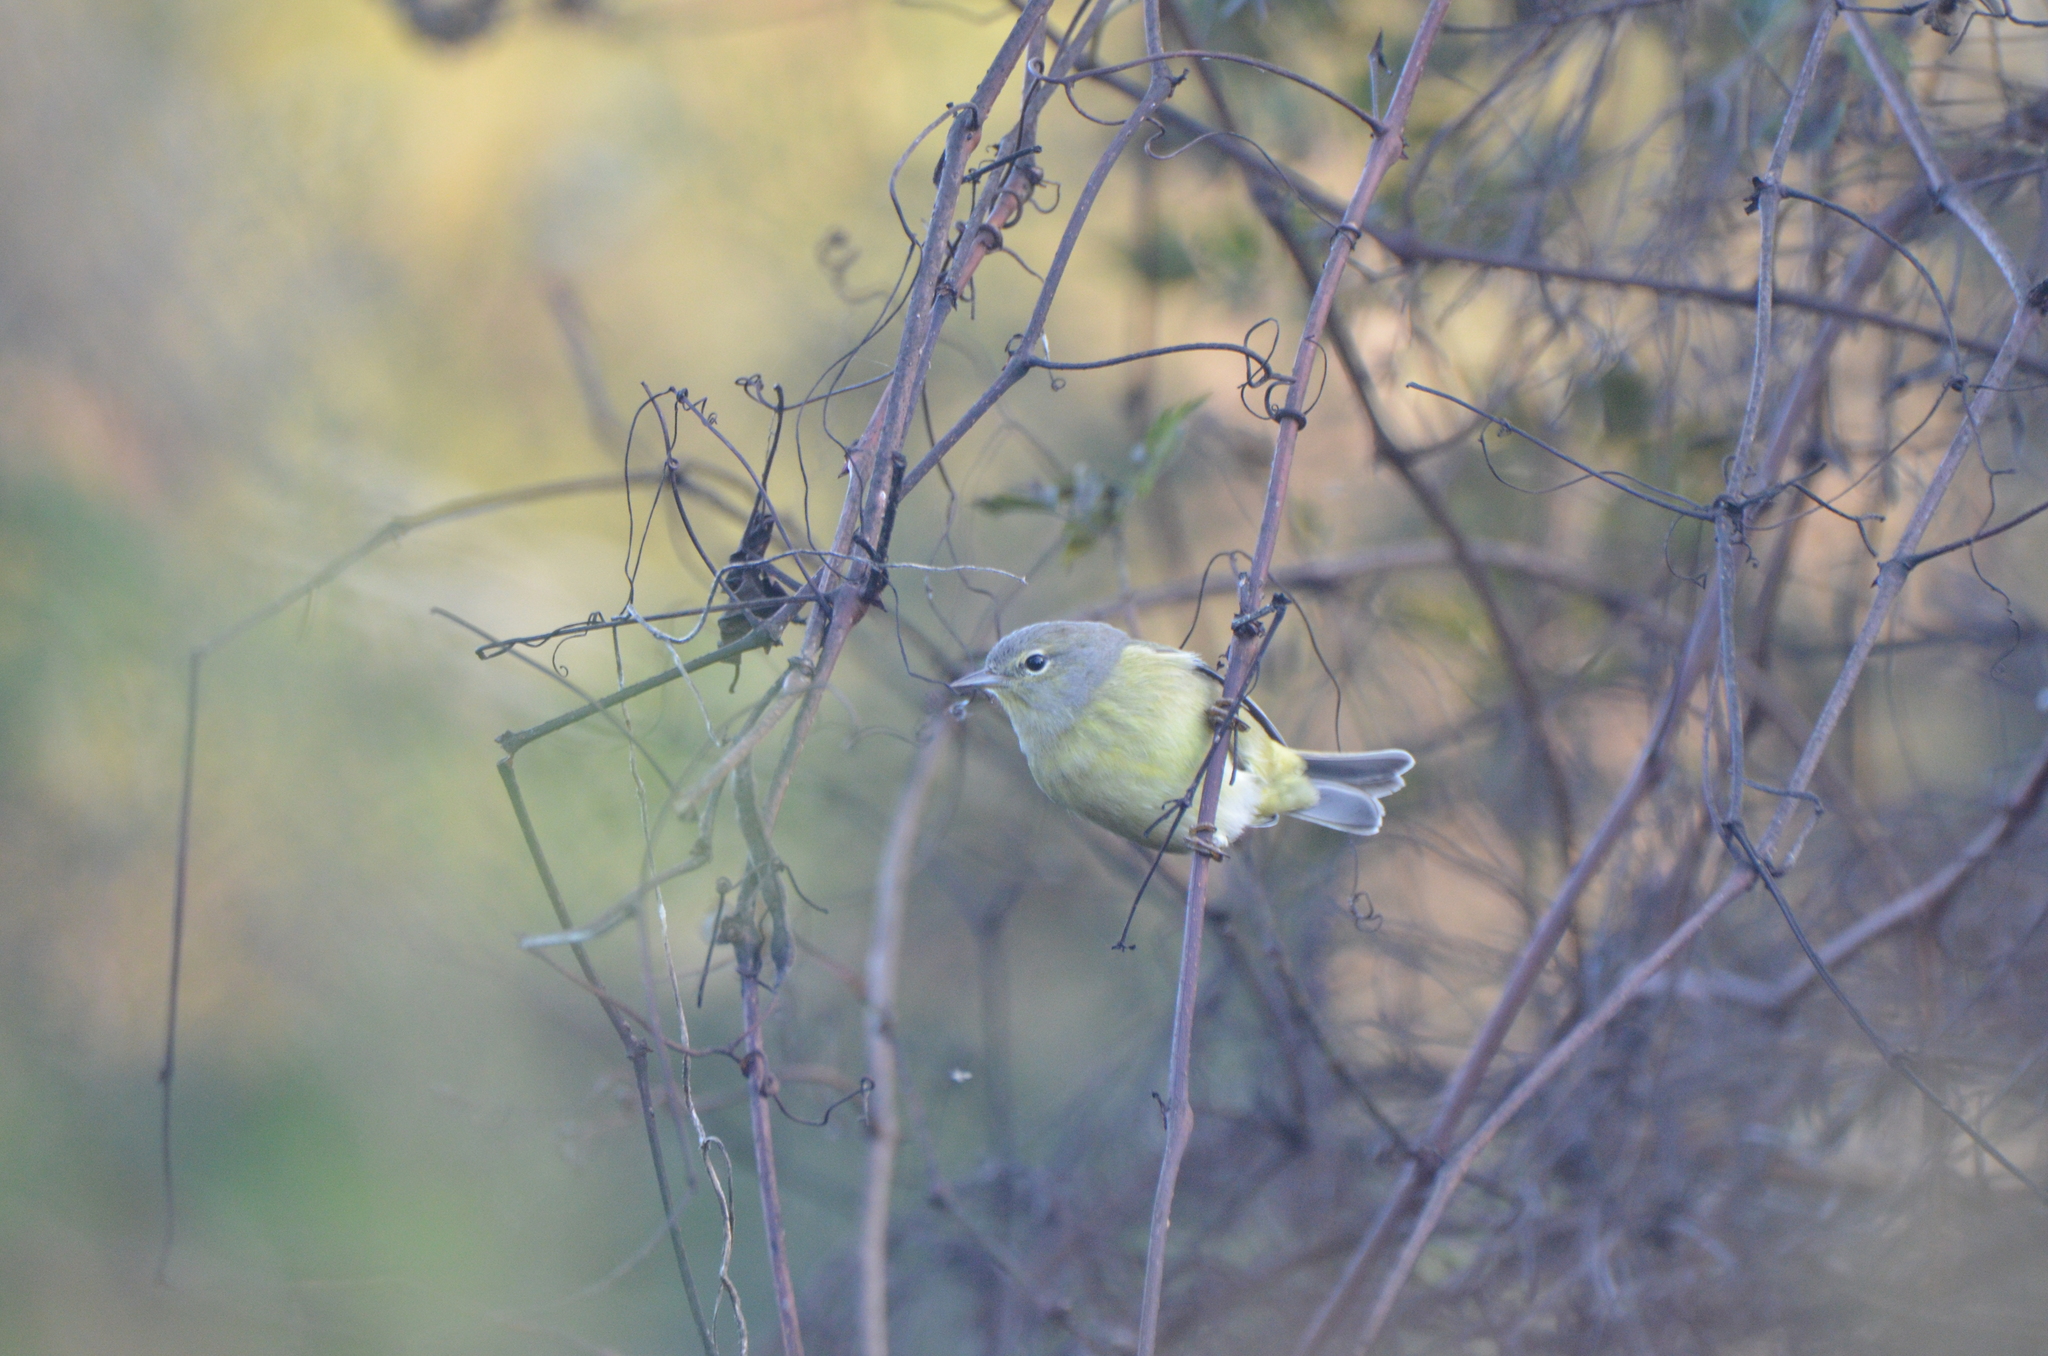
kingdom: Animalia
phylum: Chordata
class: Aves
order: Passeriformes
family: Parulidae
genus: Leiothlypis
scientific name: Leiothlypis celata
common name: Orange-crowned warbler
